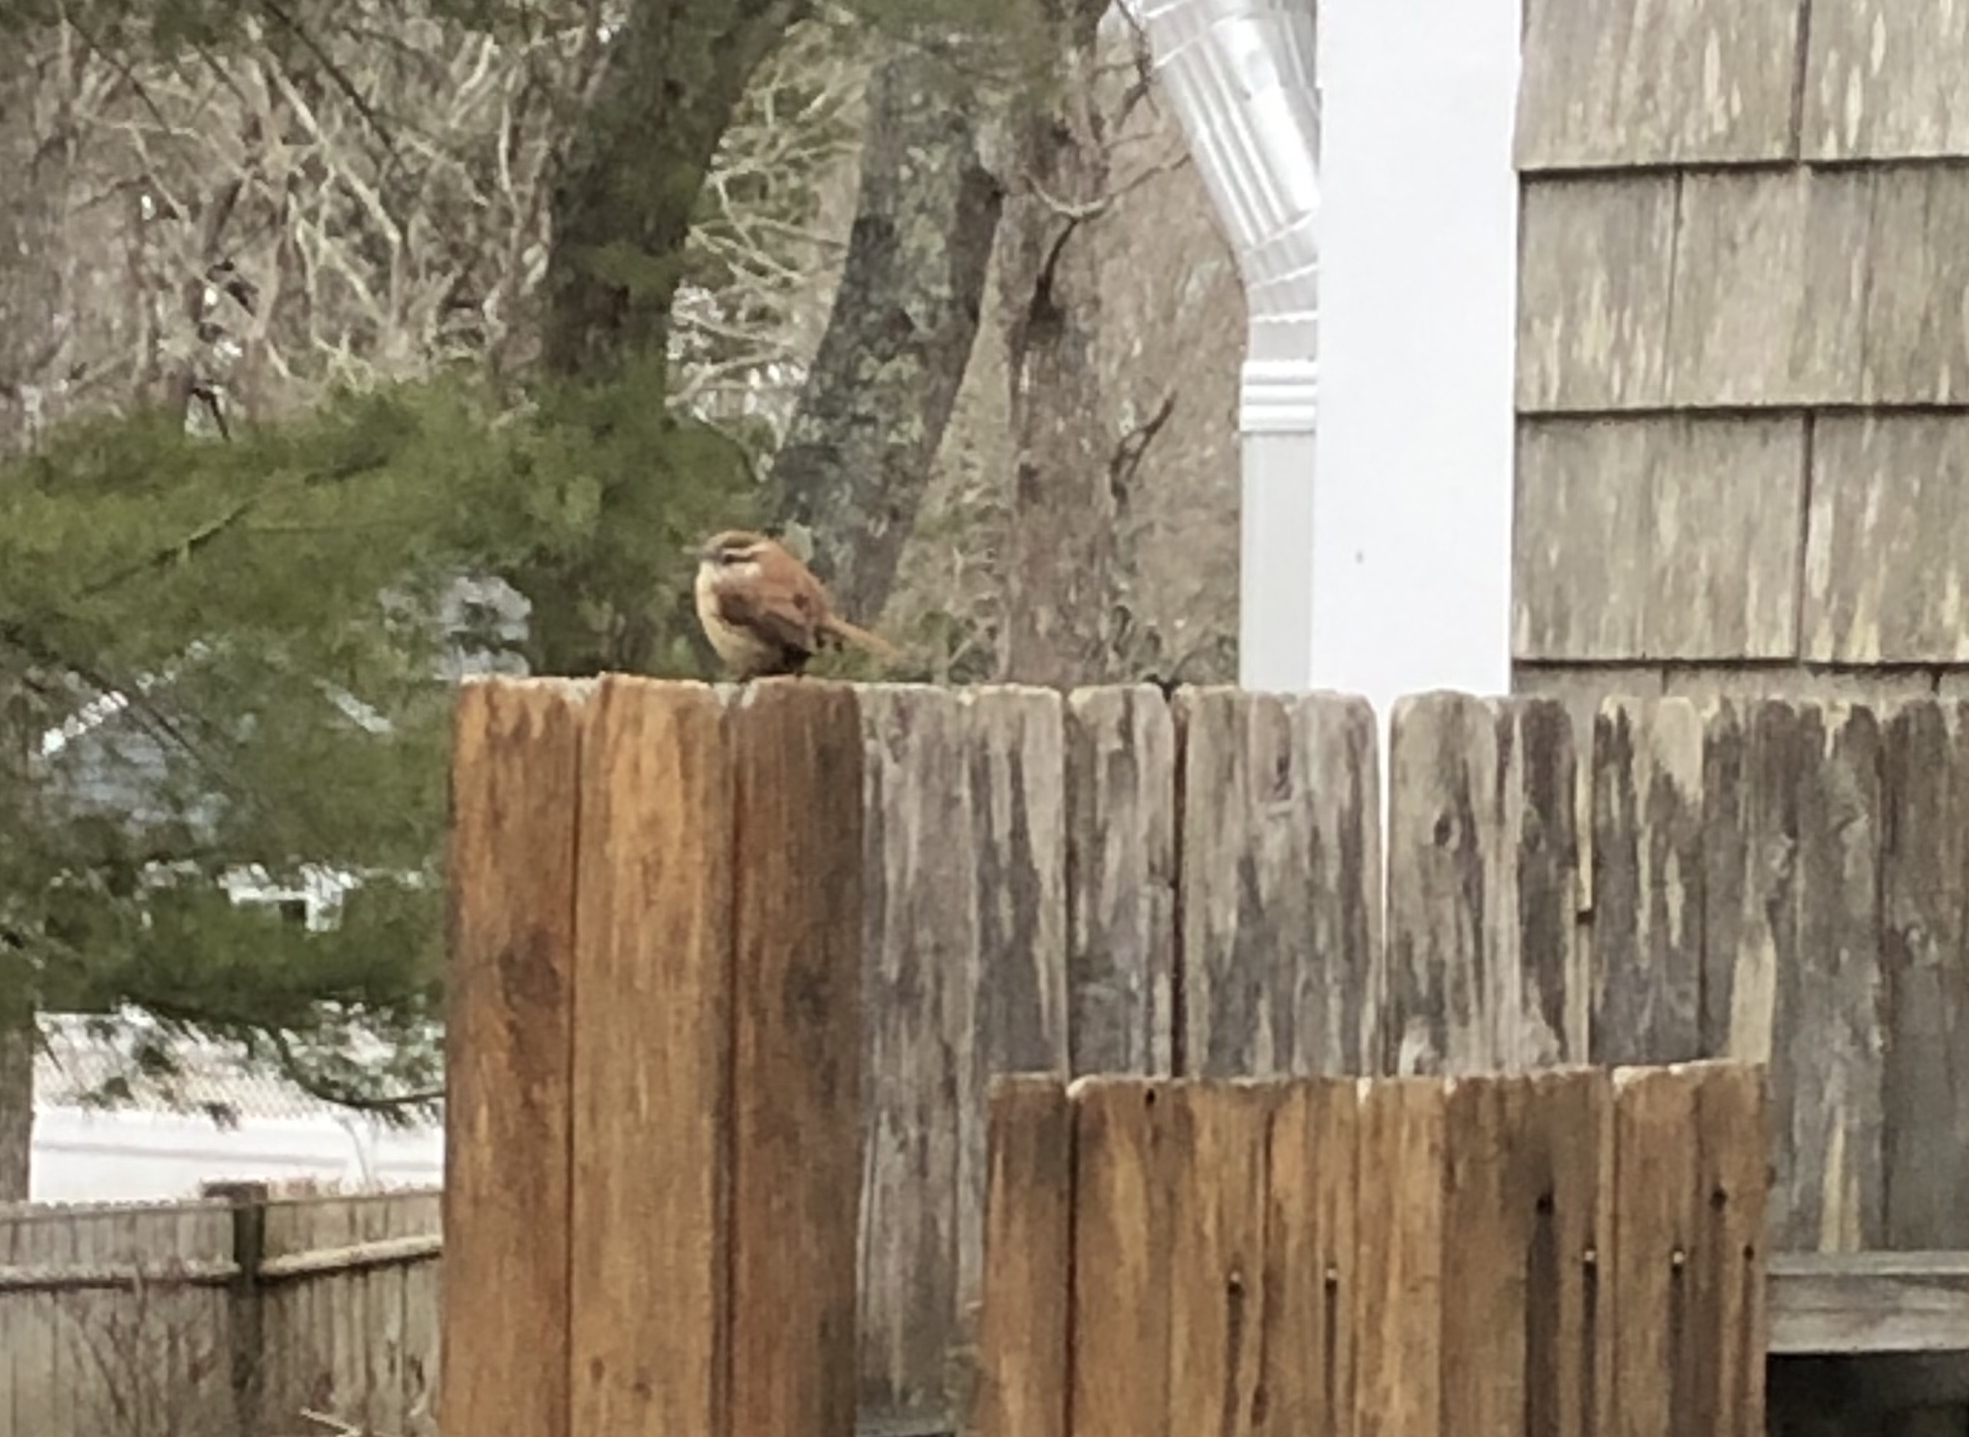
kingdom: Animalia
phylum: Chordata
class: Aves
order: Passeriformes
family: Troglodytidae
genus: Thryothorus
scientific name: Thryothorus ludovicianus
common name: Carolina wren
